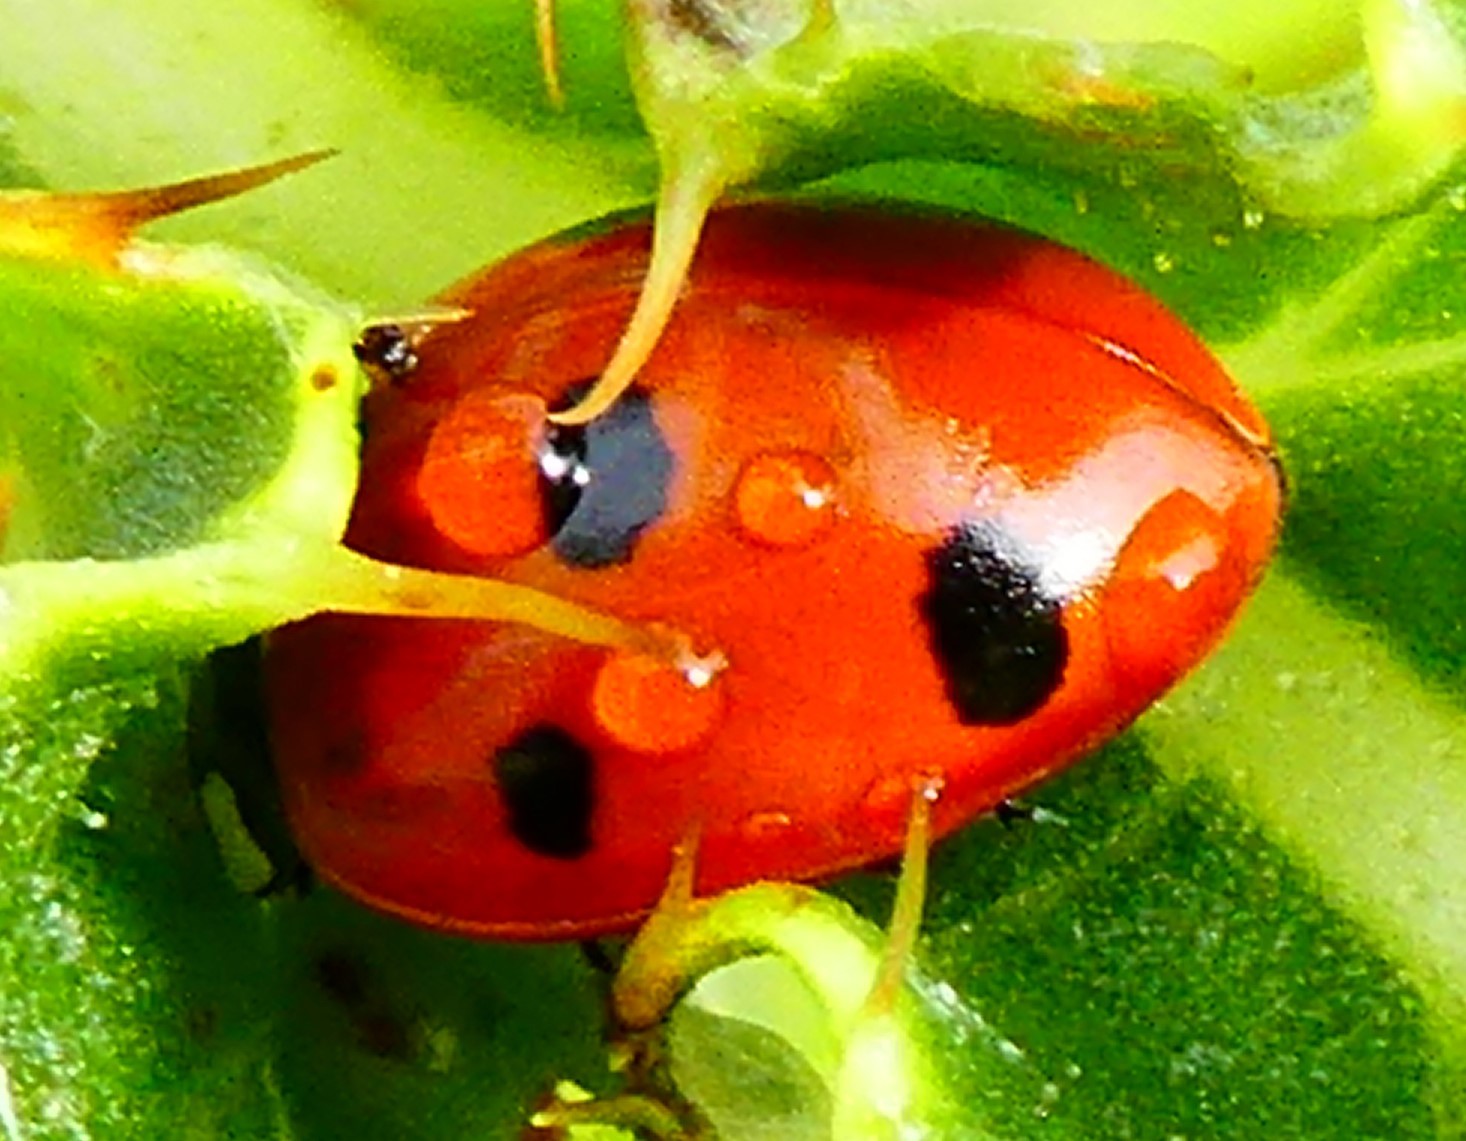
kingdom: Animalia
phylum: Arthropoda
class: Insecta
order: Coleoptera
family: Coccinellidae
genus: Coccinella
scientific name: Coccinella septempunctata
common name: Sevenspotted lady beetle
